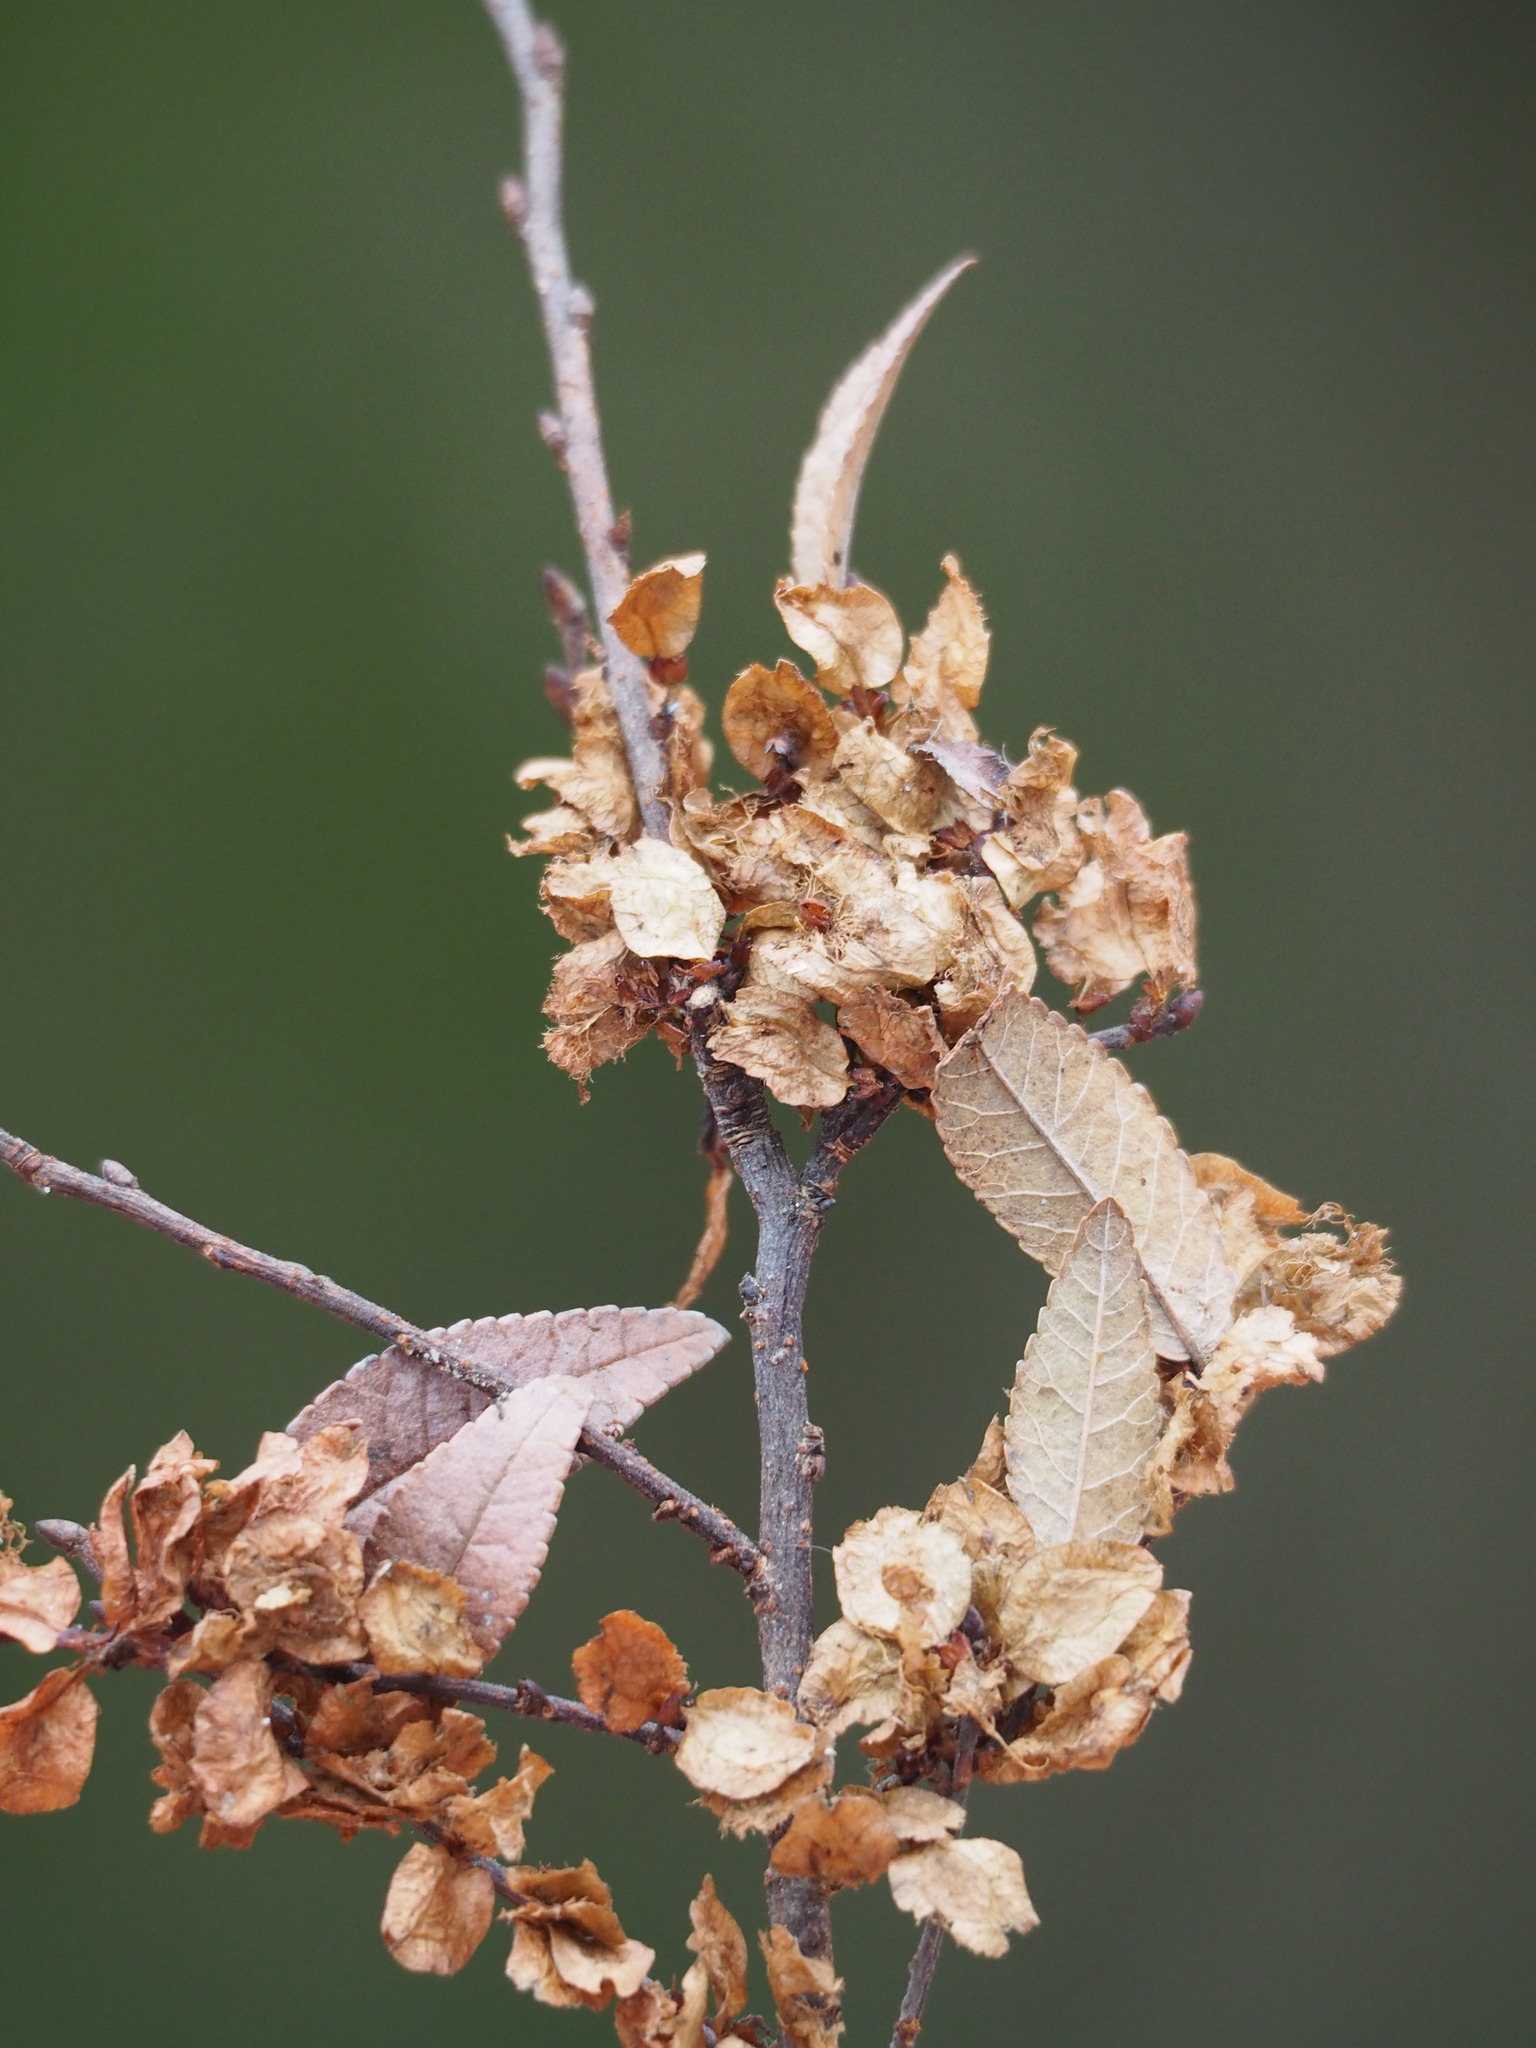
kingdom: Plantae
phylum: Tracheophyta
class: Magnoliopsida
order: Rosales
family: Ulmaceae
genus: Ulmus
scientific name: Ulmus parvifolia
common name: Chinese elm
